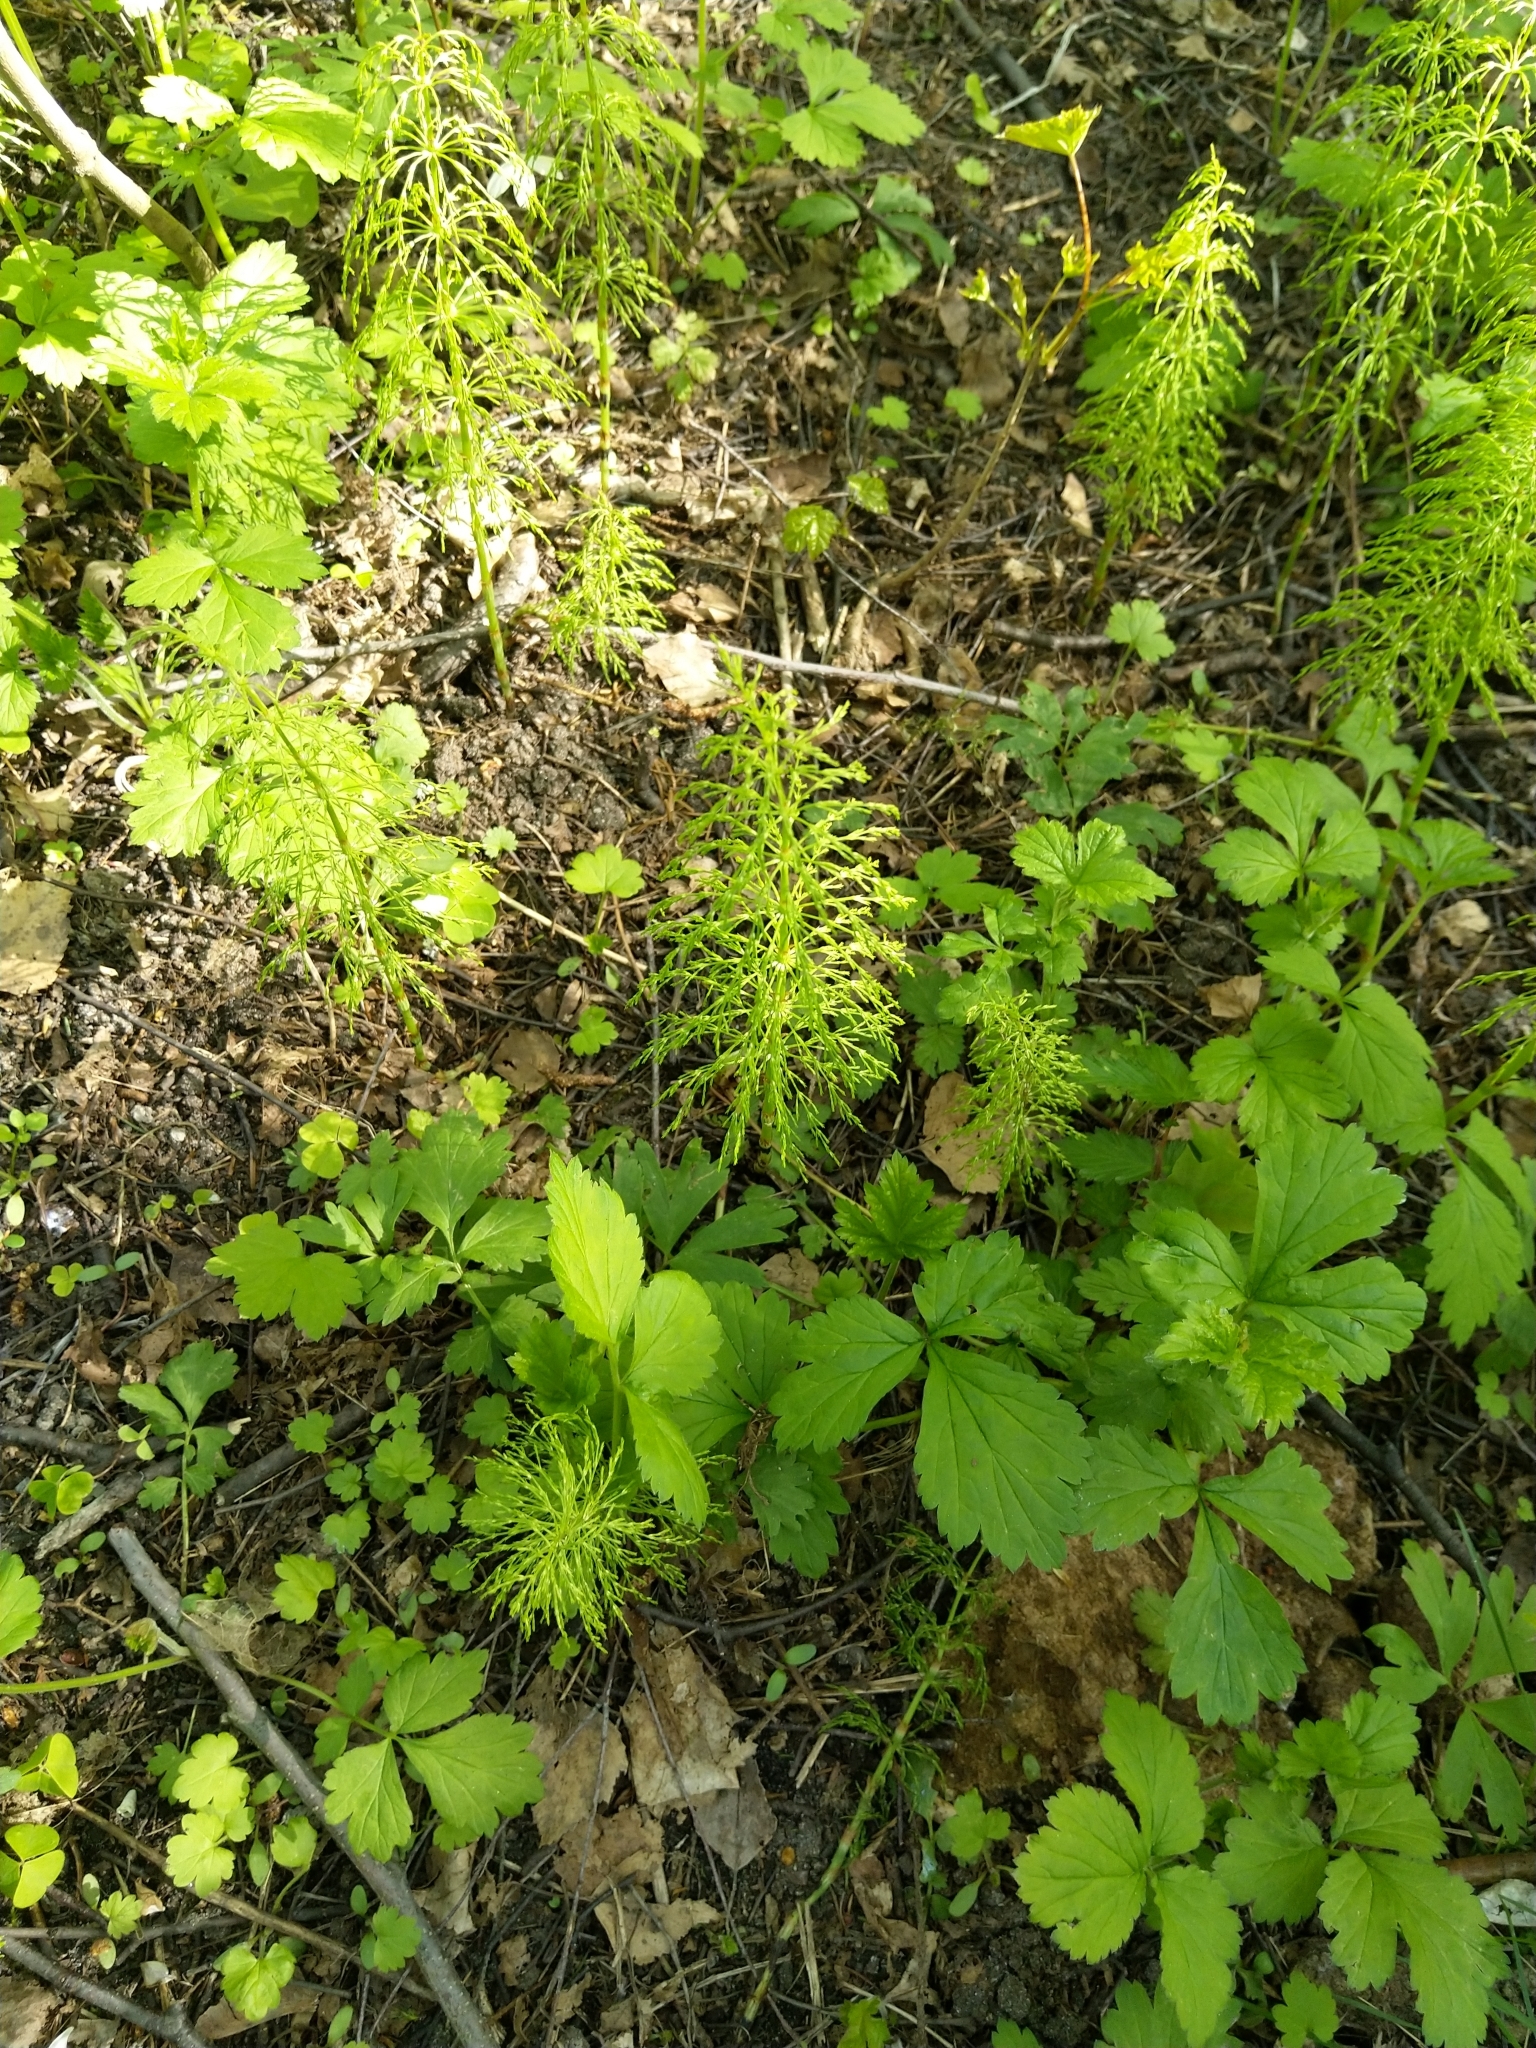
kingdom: Plantae
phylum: Tracheophyta
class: Polypodiopsida
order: Equisetales
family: Equisetaceae
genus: Equisetum
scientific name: Equisetum sylvaticum
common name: Wood horsetail
